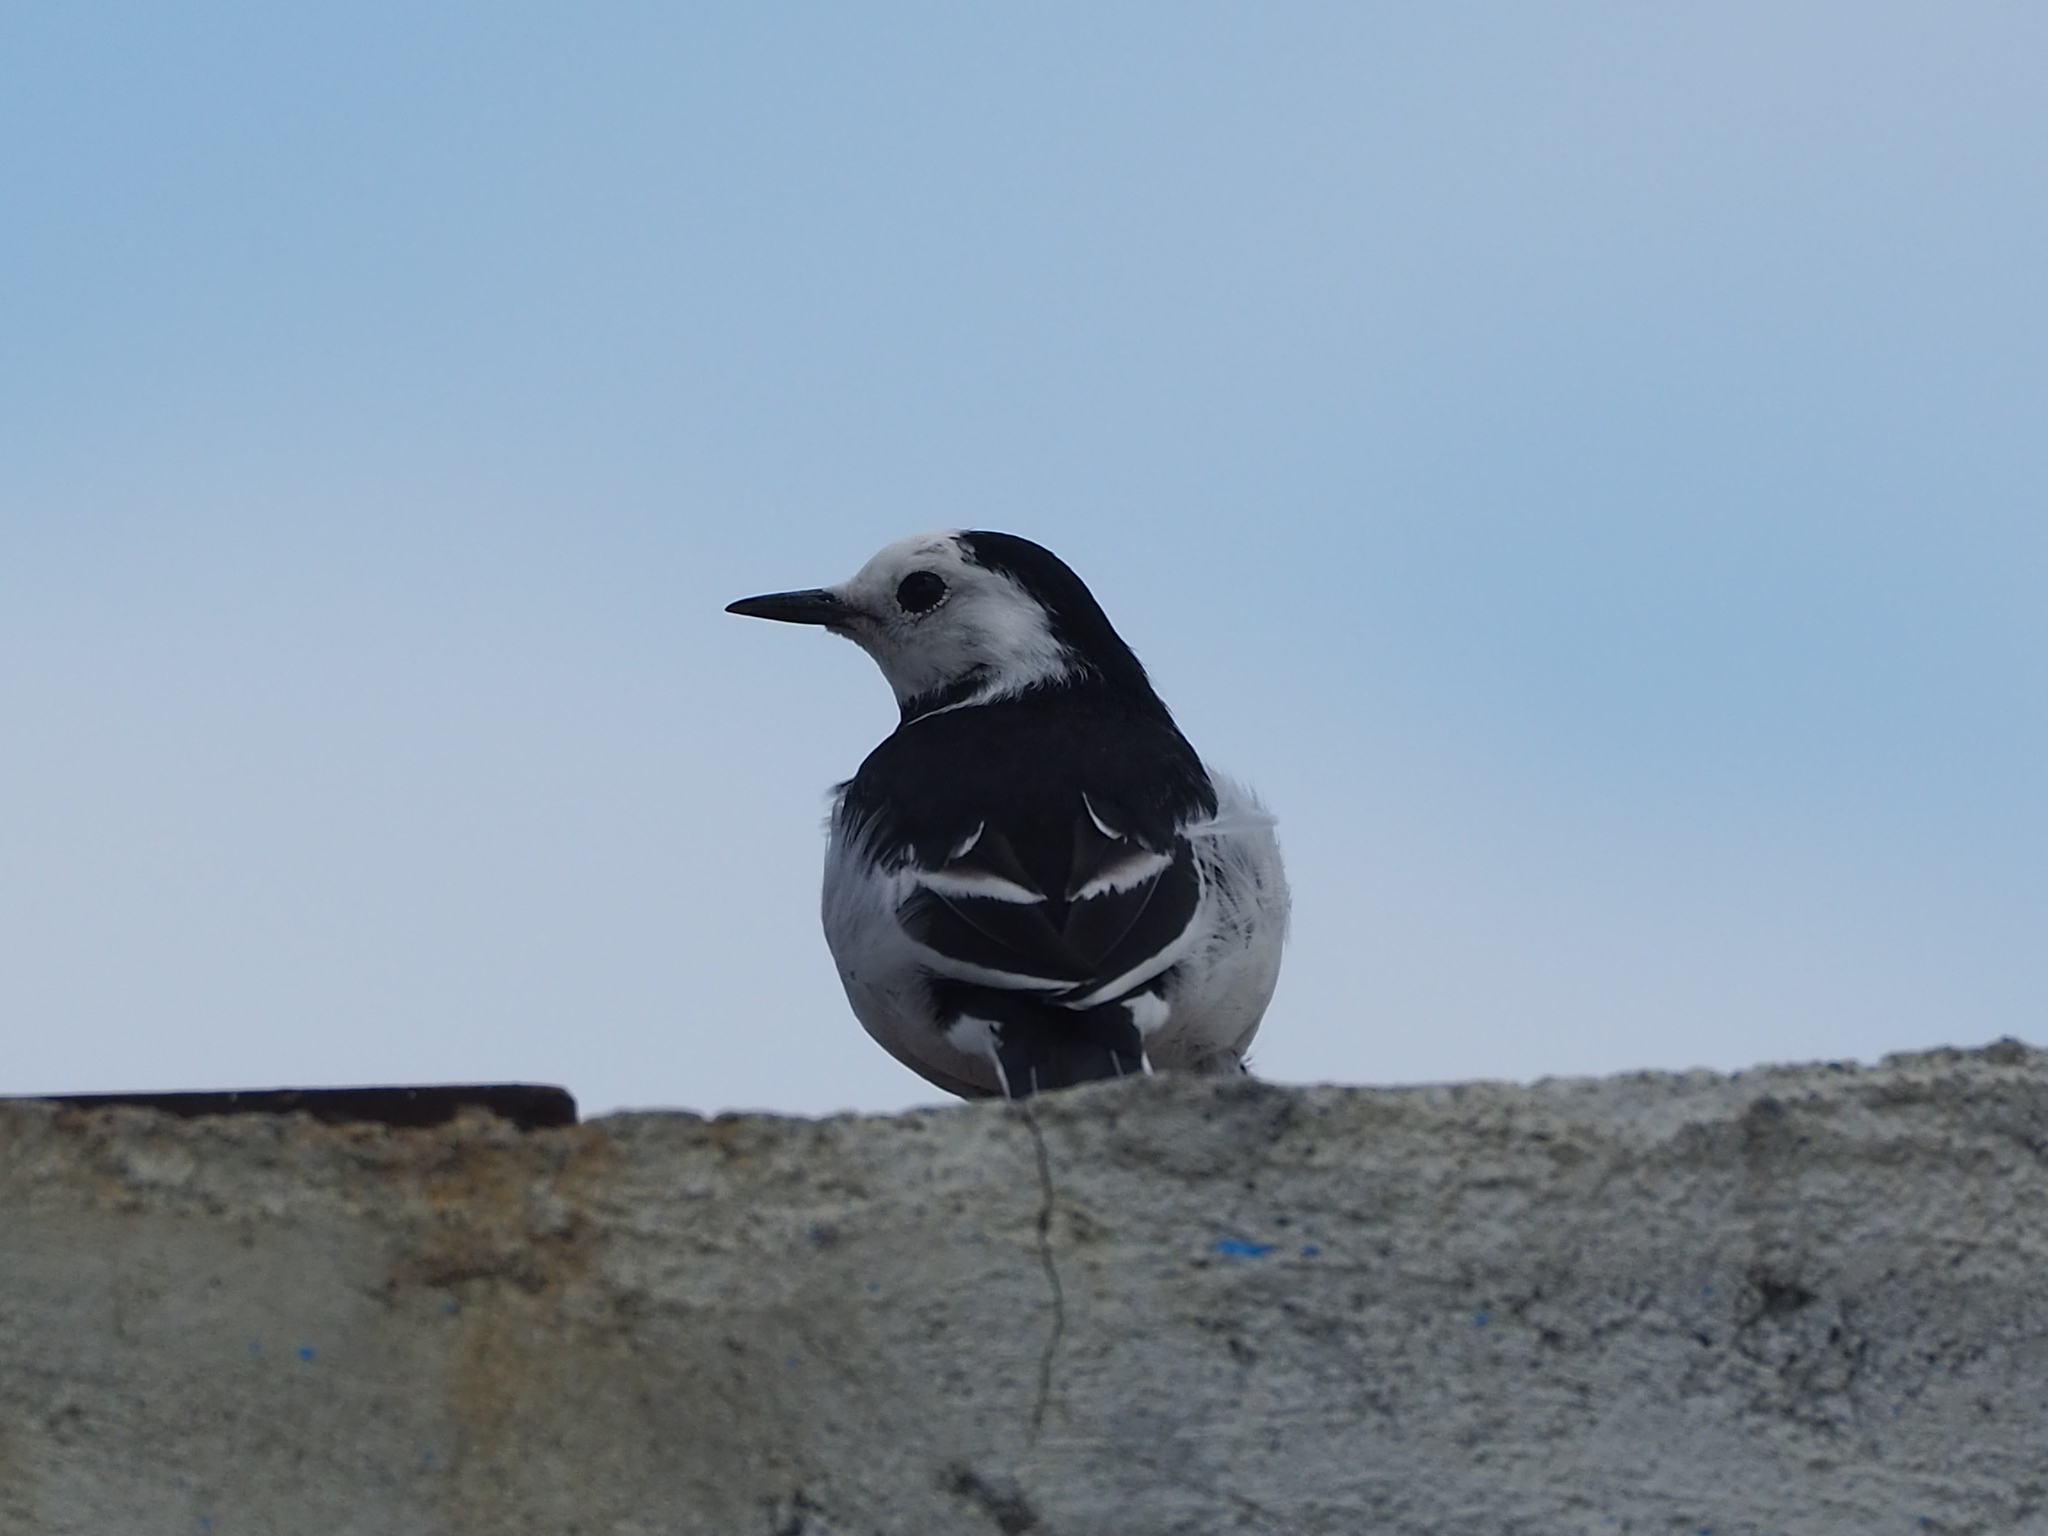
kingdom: Animalia
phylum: Chordata
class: Aves
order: Passeriformes
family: Motacillidae
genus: Motacilla
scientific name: Motacilla alba
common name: White wagtail
